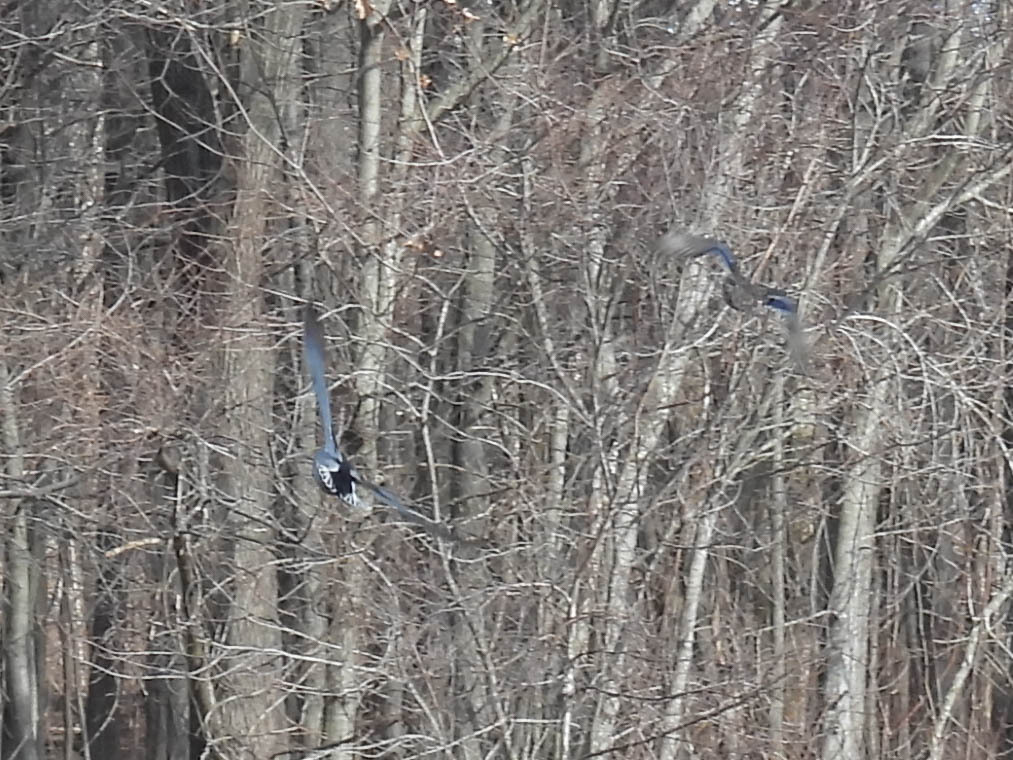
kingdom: Animalia
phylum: Chordata
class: Aves
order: Anseriformes
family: Anatidae
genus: Anas
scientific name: Anas platyrhynchos
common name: Mallard
